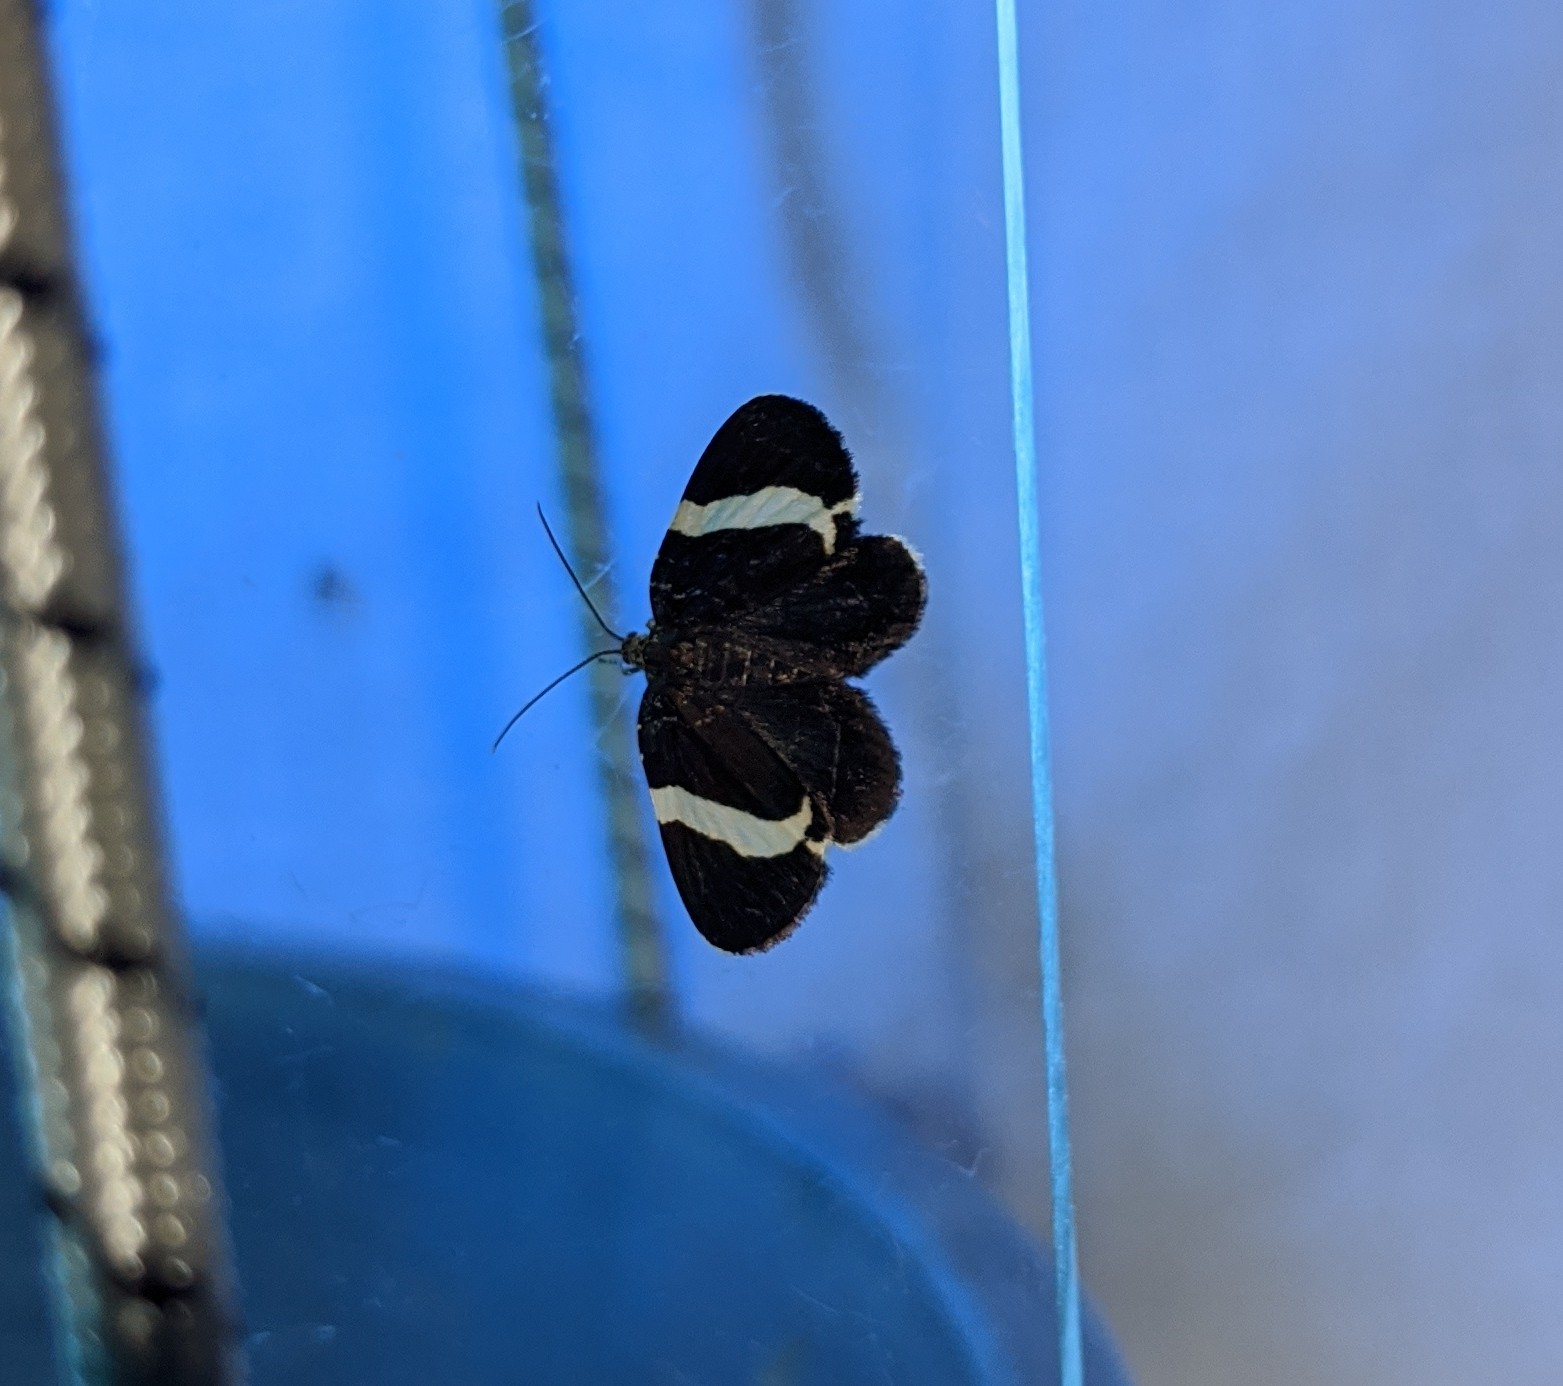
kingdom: Animalia
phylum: Arthropoda
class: Insecta
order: Lepidoptera
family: Geometridae
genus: Trichodezia
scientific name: Trichodezia albovittata
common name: White striped black
